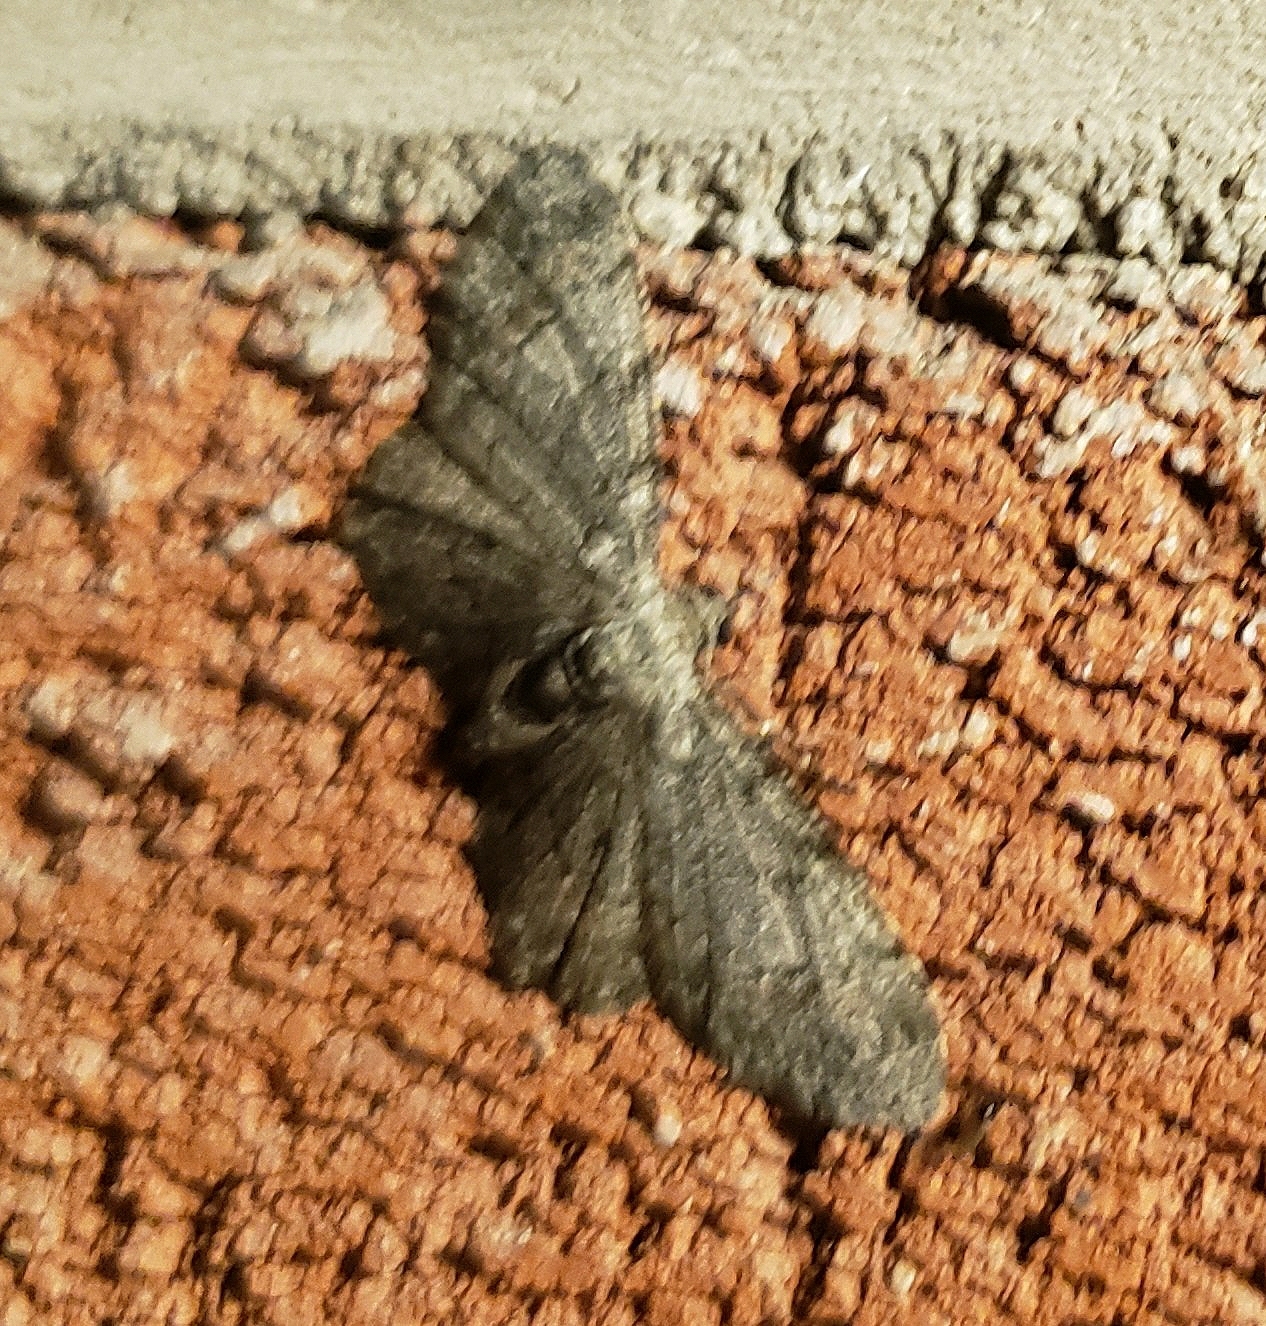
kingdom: Animalia
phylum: Arthropoda
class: Insecta
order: Lepidoptera
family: Geometridae
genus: Glenoides
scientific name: Glenoides texanaria
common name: Texas gray
